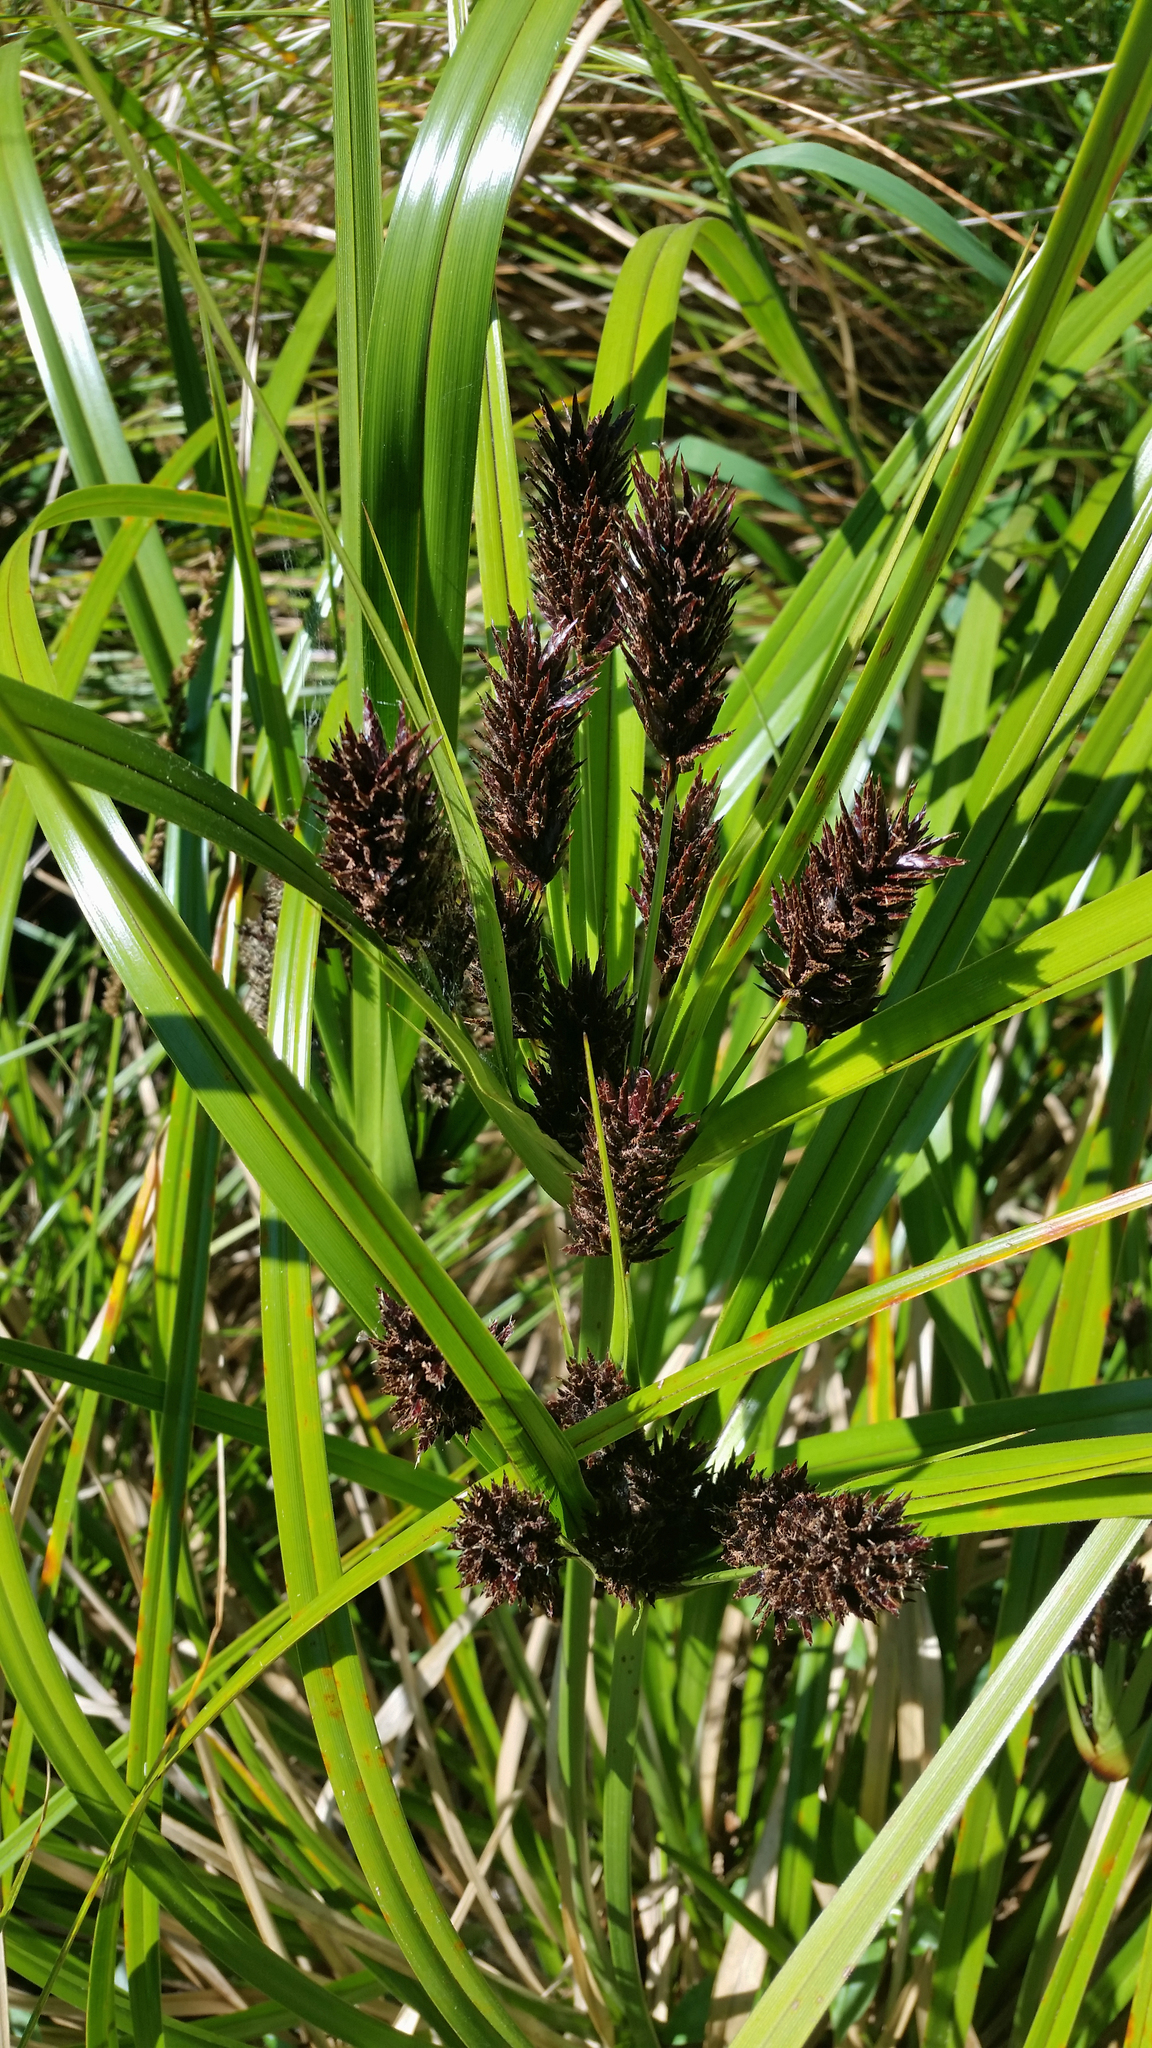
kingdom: Plantae
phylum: Tracheophyta
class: Liliopsida
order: Poales
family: Cyperaceae
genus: Cyperus
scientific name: Cyperus ustulatus
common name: Giant umbrella-sedge
